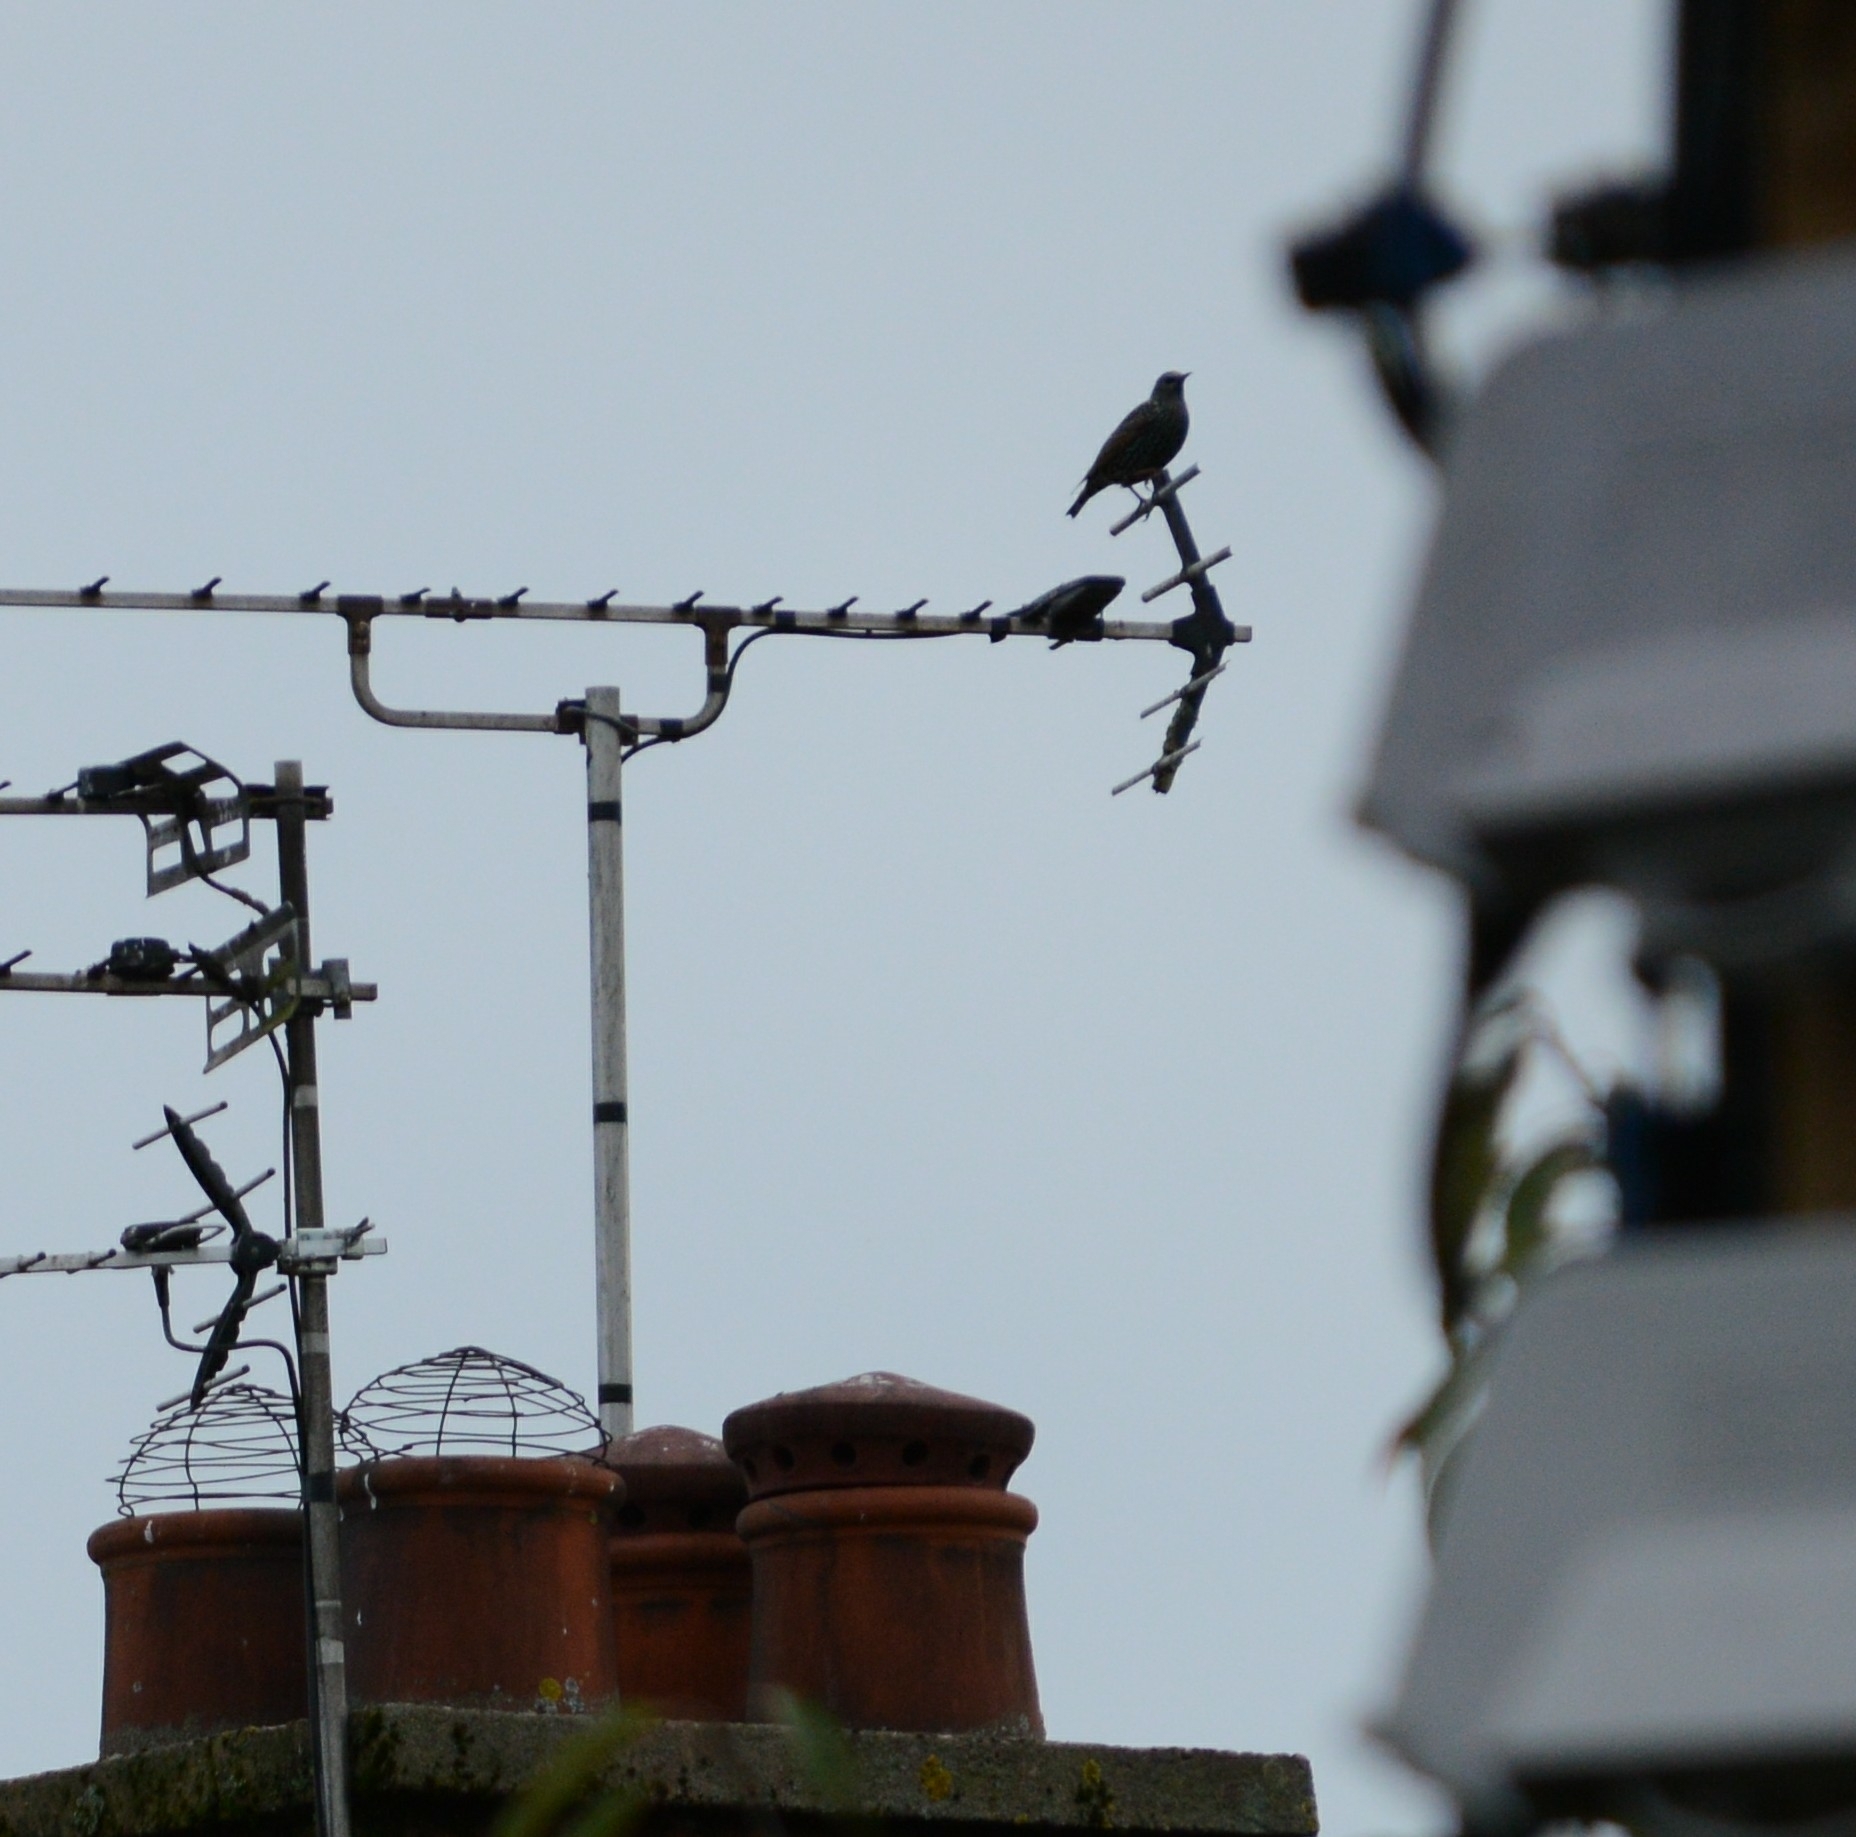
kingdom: Animalia
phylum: Chordata
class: Aves
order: Passeriformes
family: Sturnidae
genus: Sturnus
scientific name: Sturnus vulgaris
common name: Common starling
